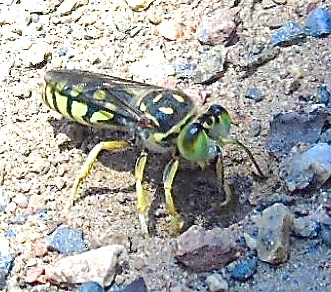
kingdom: Animalia
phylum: Arthropoda
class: Insecta
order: Hymenoptera
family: Crabronidae
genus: Steniolia
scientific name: Steniolia
